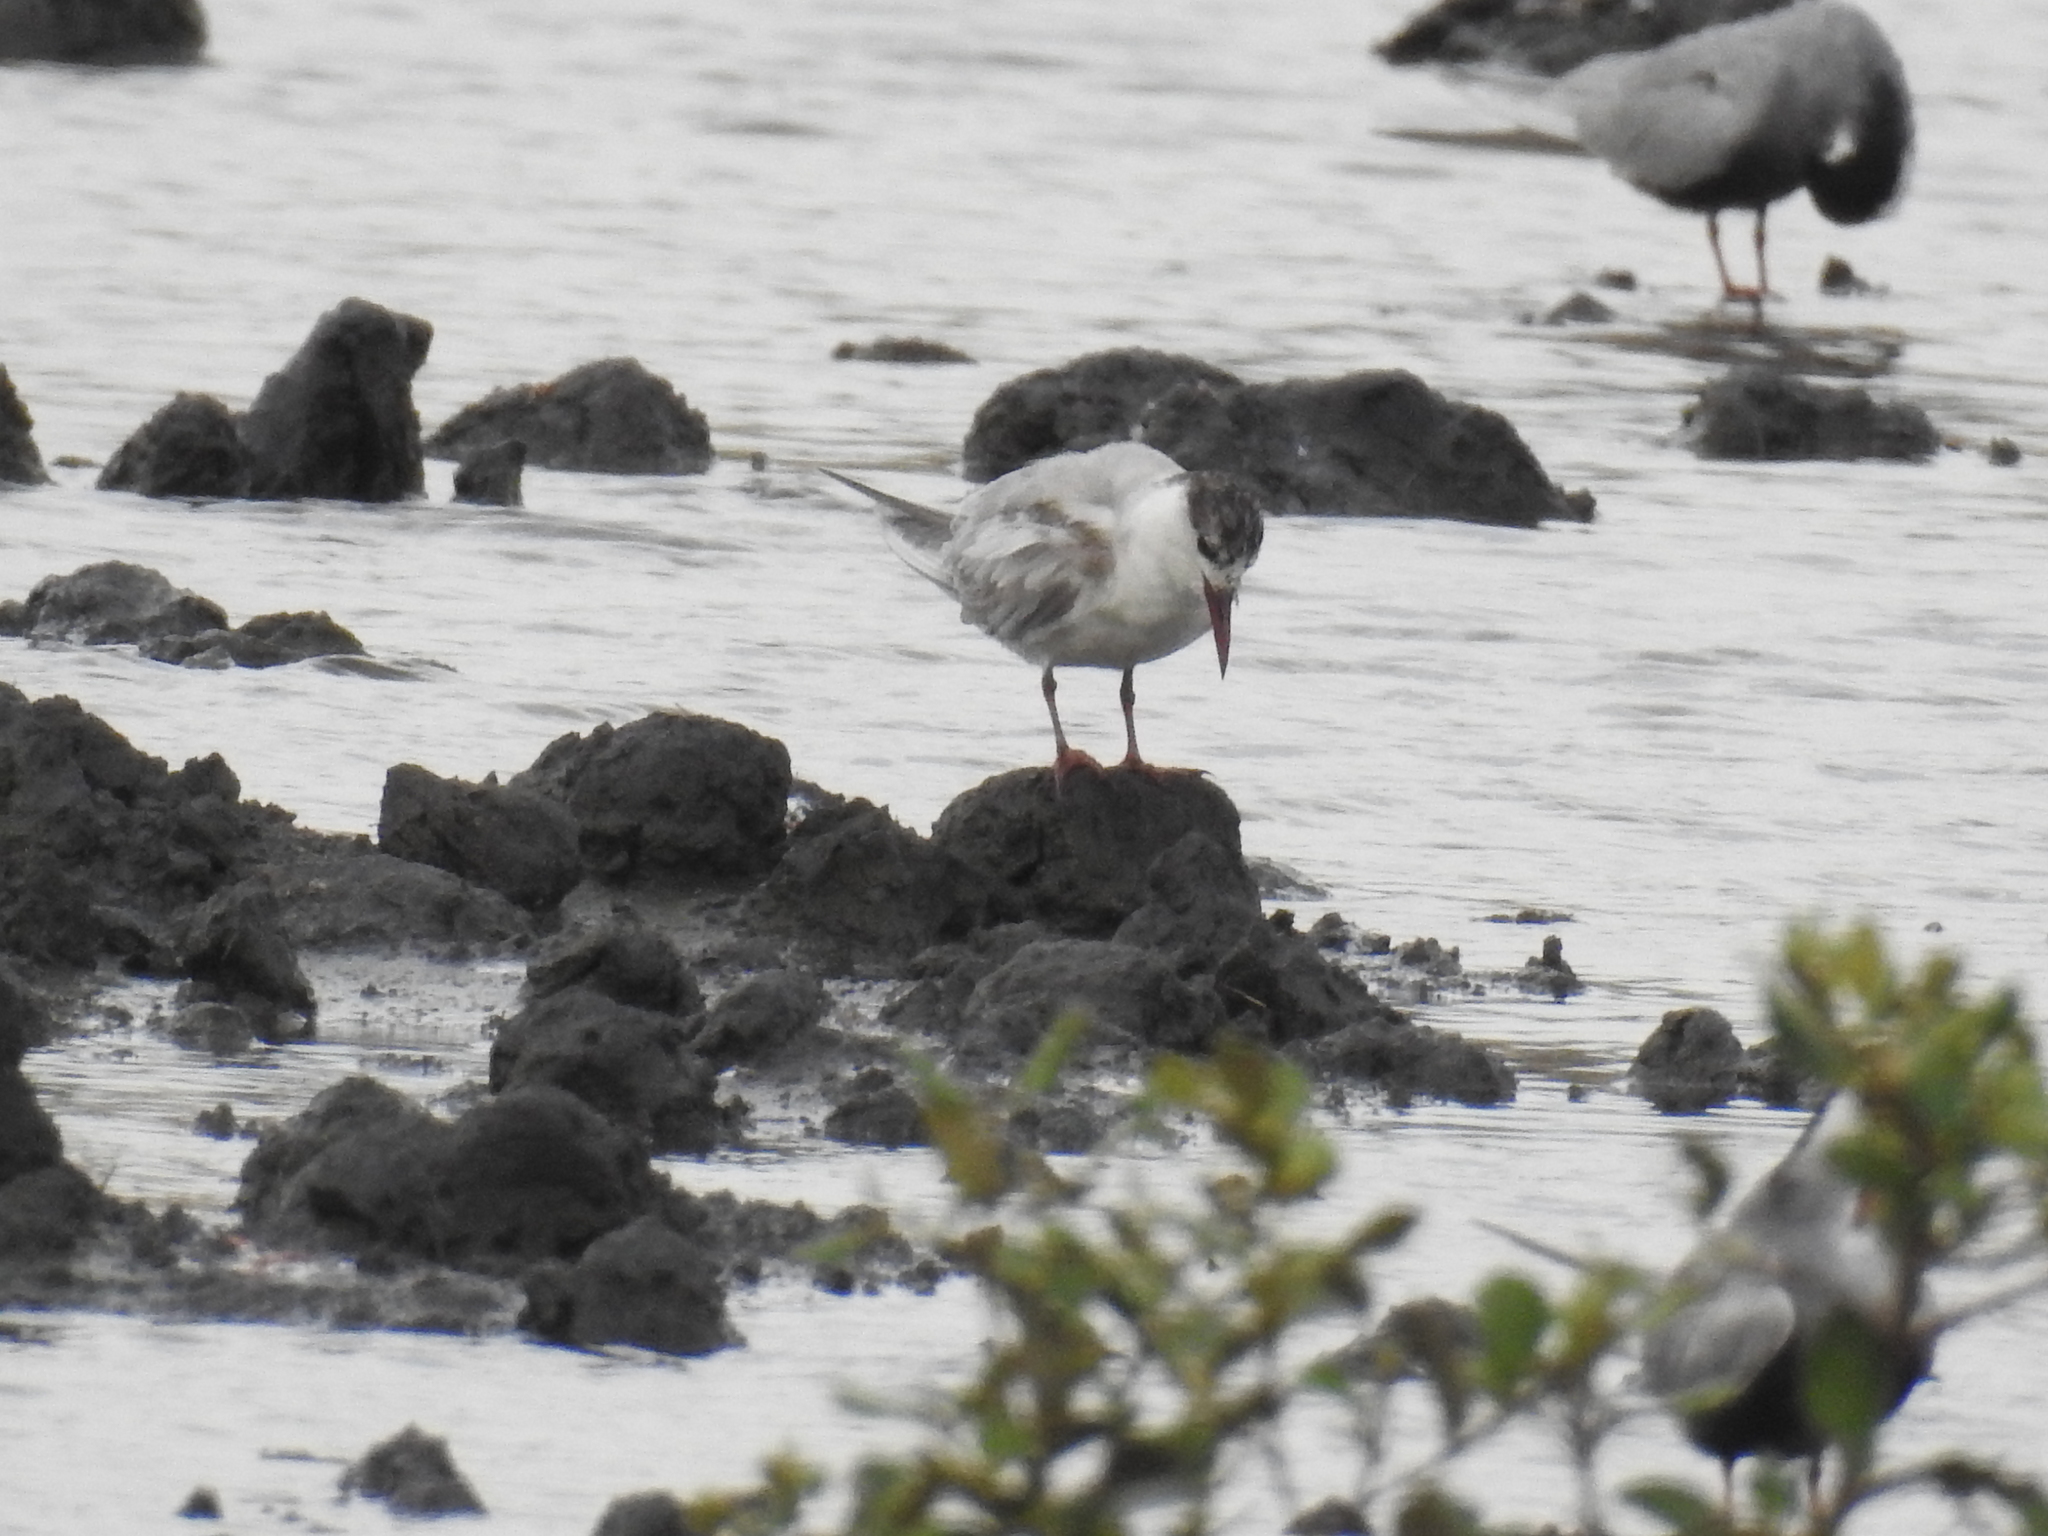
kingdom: Animalia
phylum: Chordata
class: Aves
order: Charadriiformes
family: Laridae
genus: Chlidonias
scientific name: Chlidonias hybrida
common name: Whiskered tern
